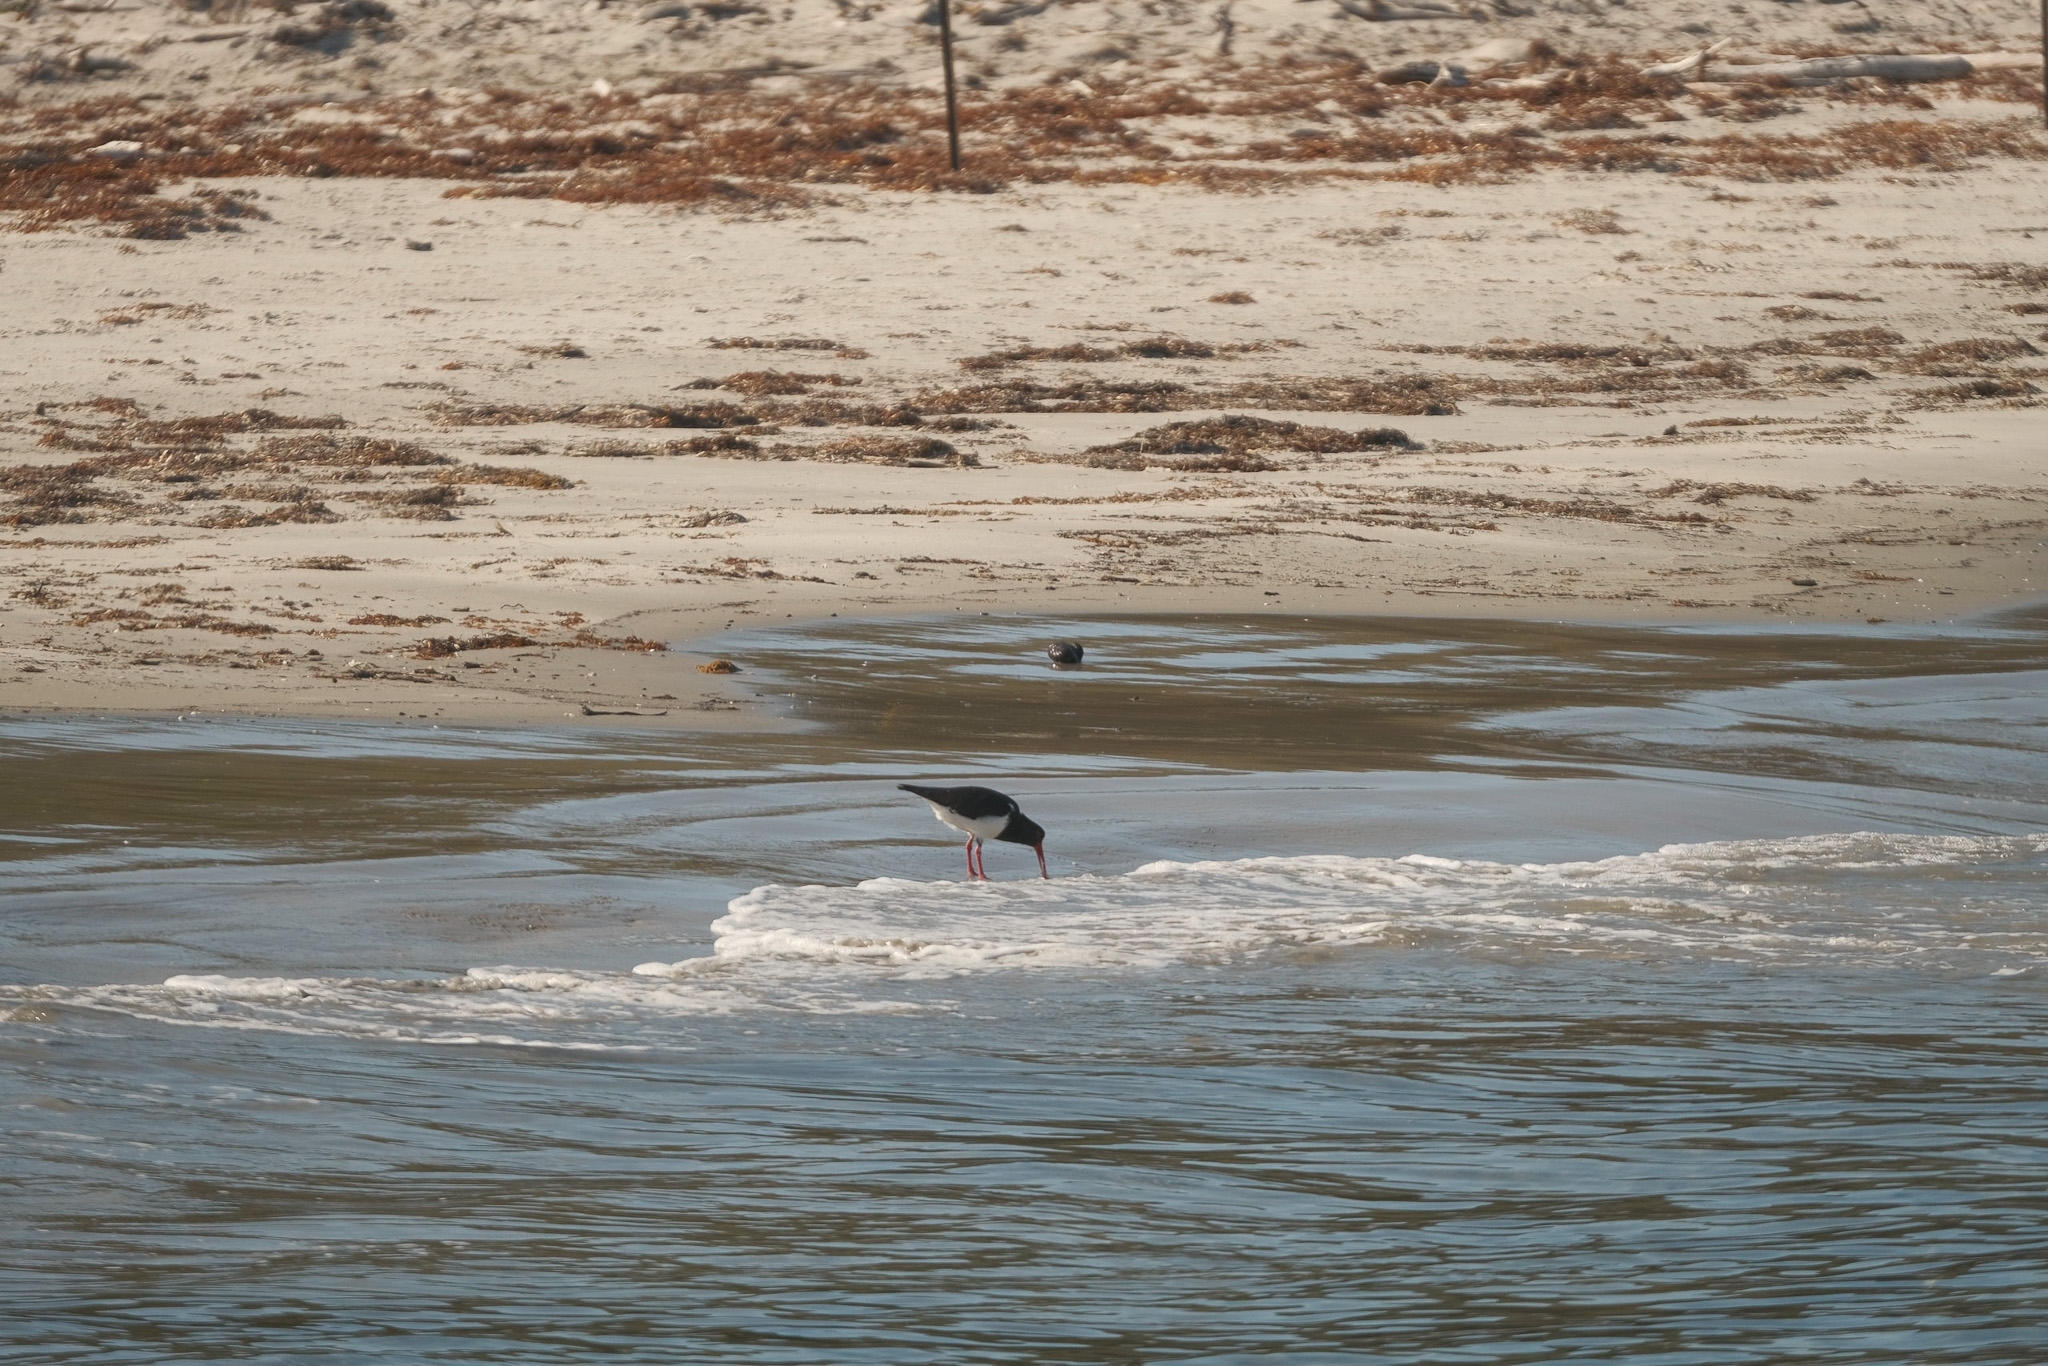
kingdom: Animalia
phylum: Chordata
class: Aves
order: Charadriiformes
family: Haematopodidae
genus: Haematopus
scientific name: Haematopus longirostris
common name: Pied oystercatcher
